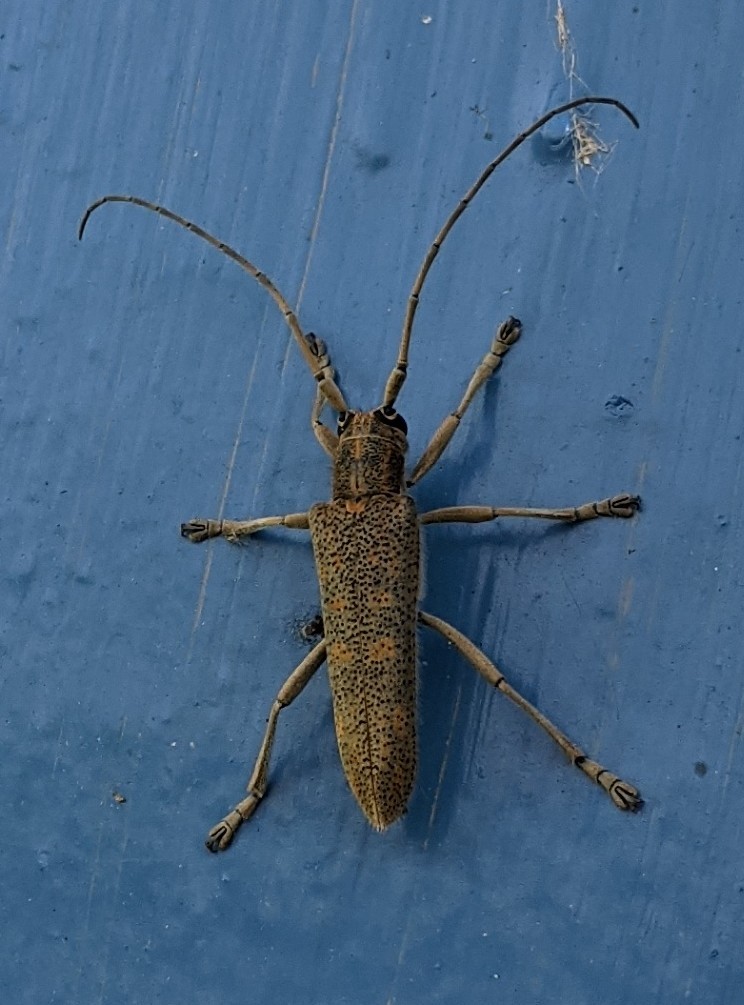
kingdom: Animalia
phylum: Arthropoda
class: Insecta
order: Coleoptera
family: Cerambycidae
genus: Saperda
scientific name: Saperda calcarata
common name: Poplar borer
